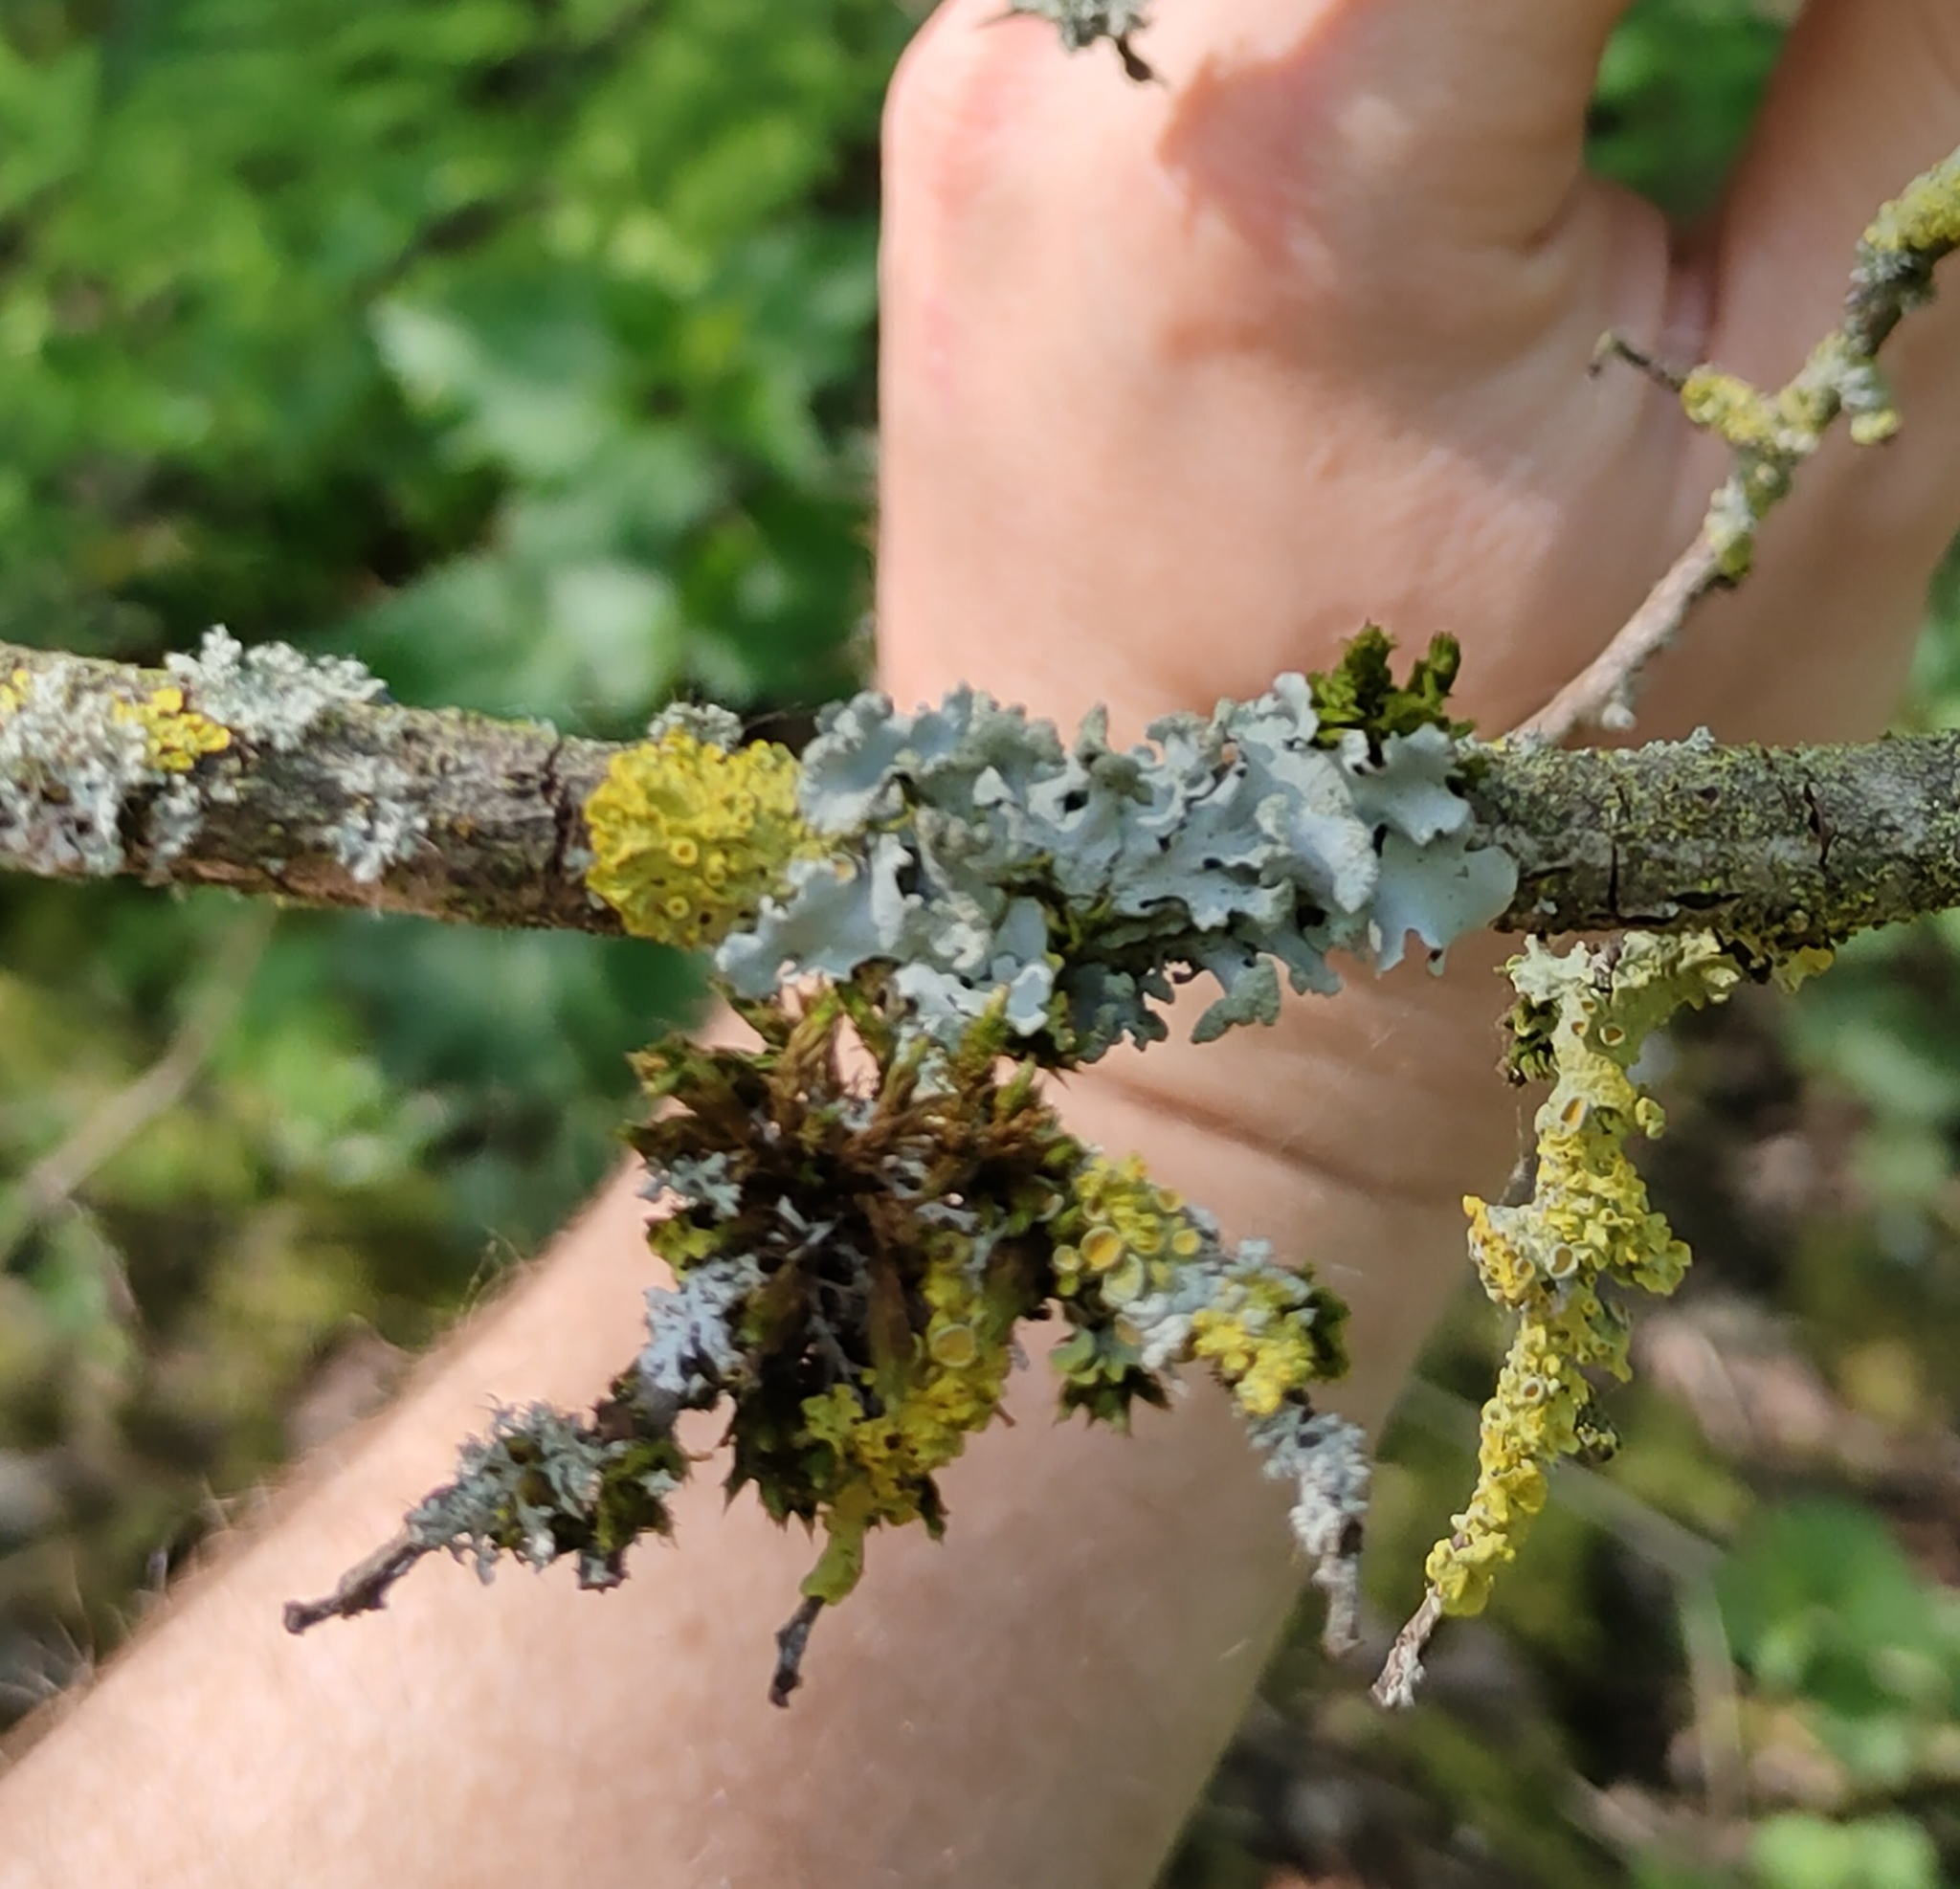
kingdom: Fungi
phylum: Ascomycota
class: Lecanoromycetes
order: Teloschistales
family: Teloschistaceae
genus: Xanthoria
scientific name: Xanthoria parietina
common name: Common orange lichen
